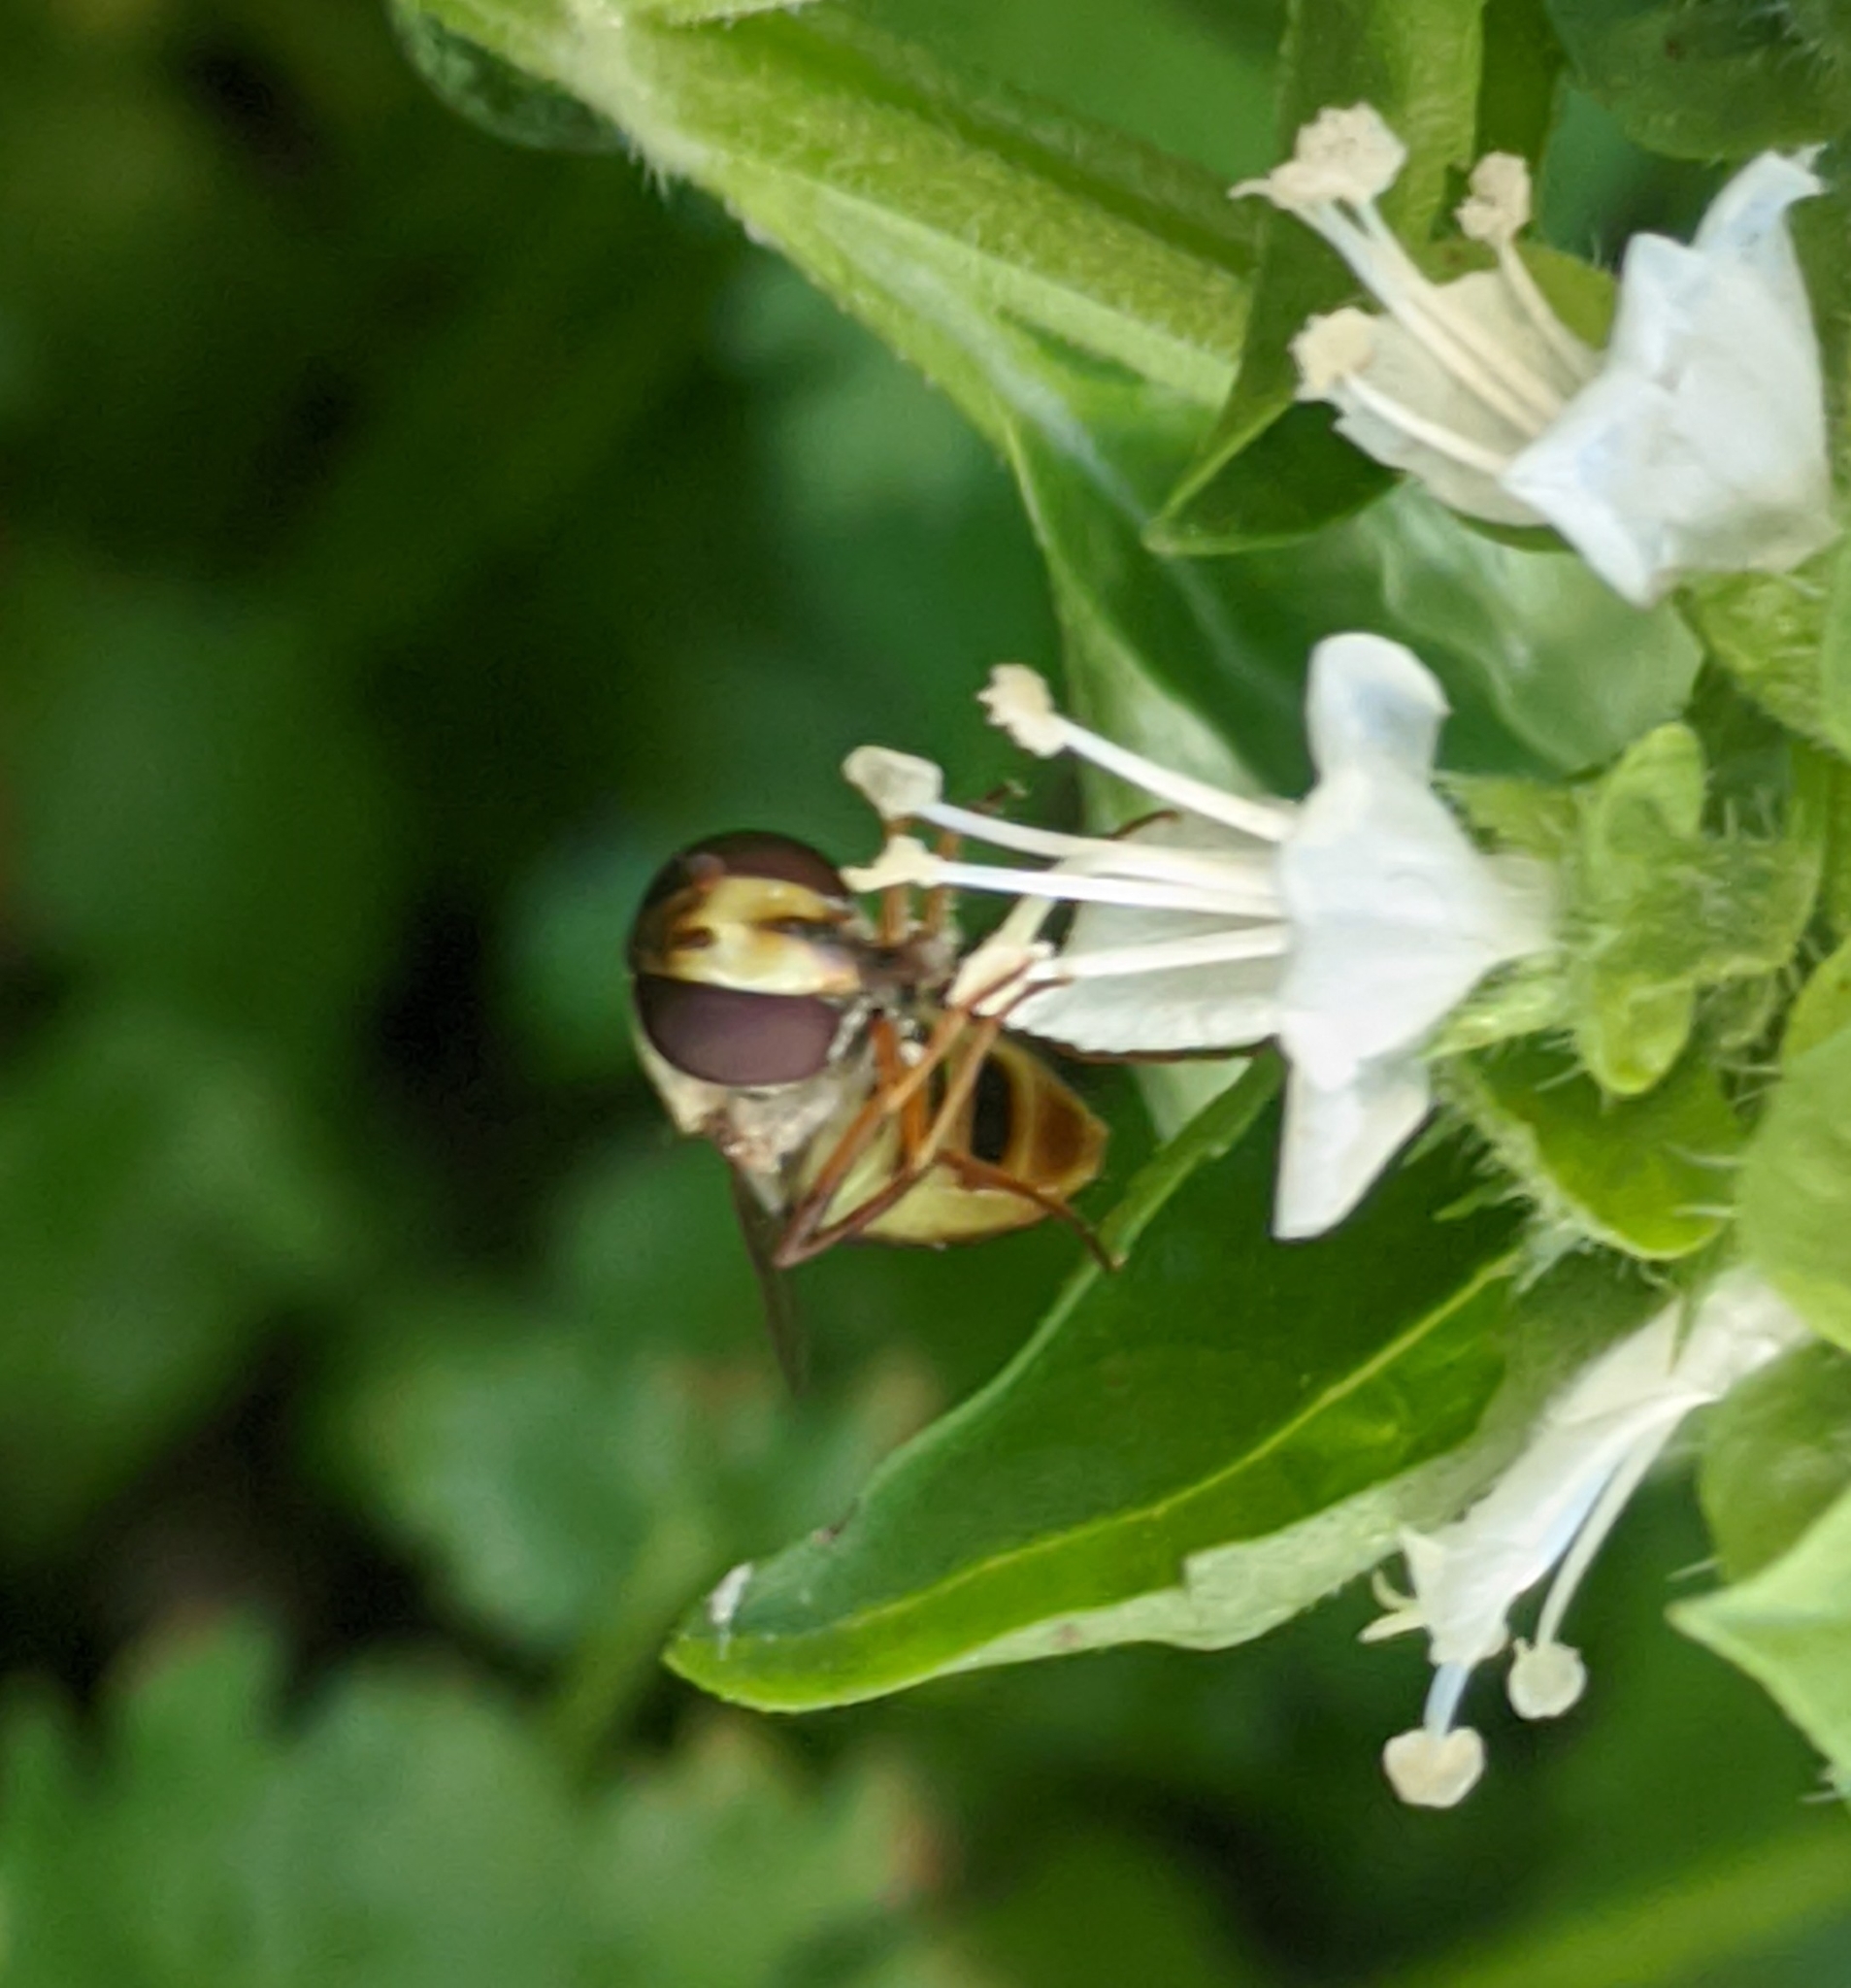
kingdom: Animalia
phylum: Arthropoda
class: Insecta
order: Diptera
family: Syrphidae
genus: Eupeodes
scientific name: Eupeodes fumipennis
